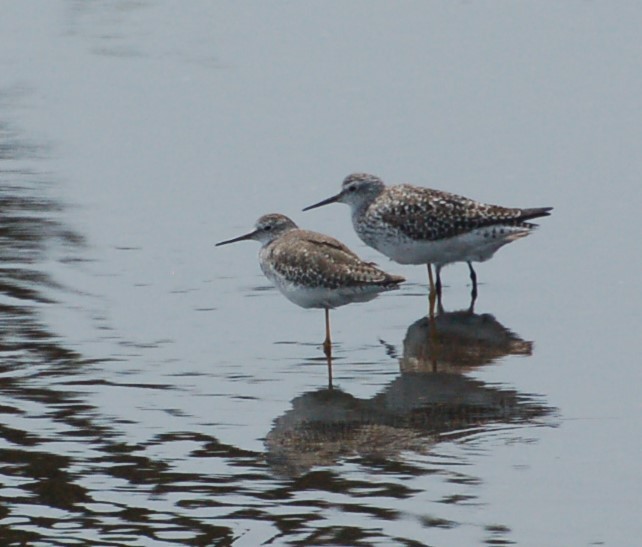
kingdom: Animalia
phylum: Chordata
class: Aves
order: Charadriiformes
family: Scolopacidae
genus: Tringa
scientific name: Tringa melanoleuca
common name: Greater yellowlegs
